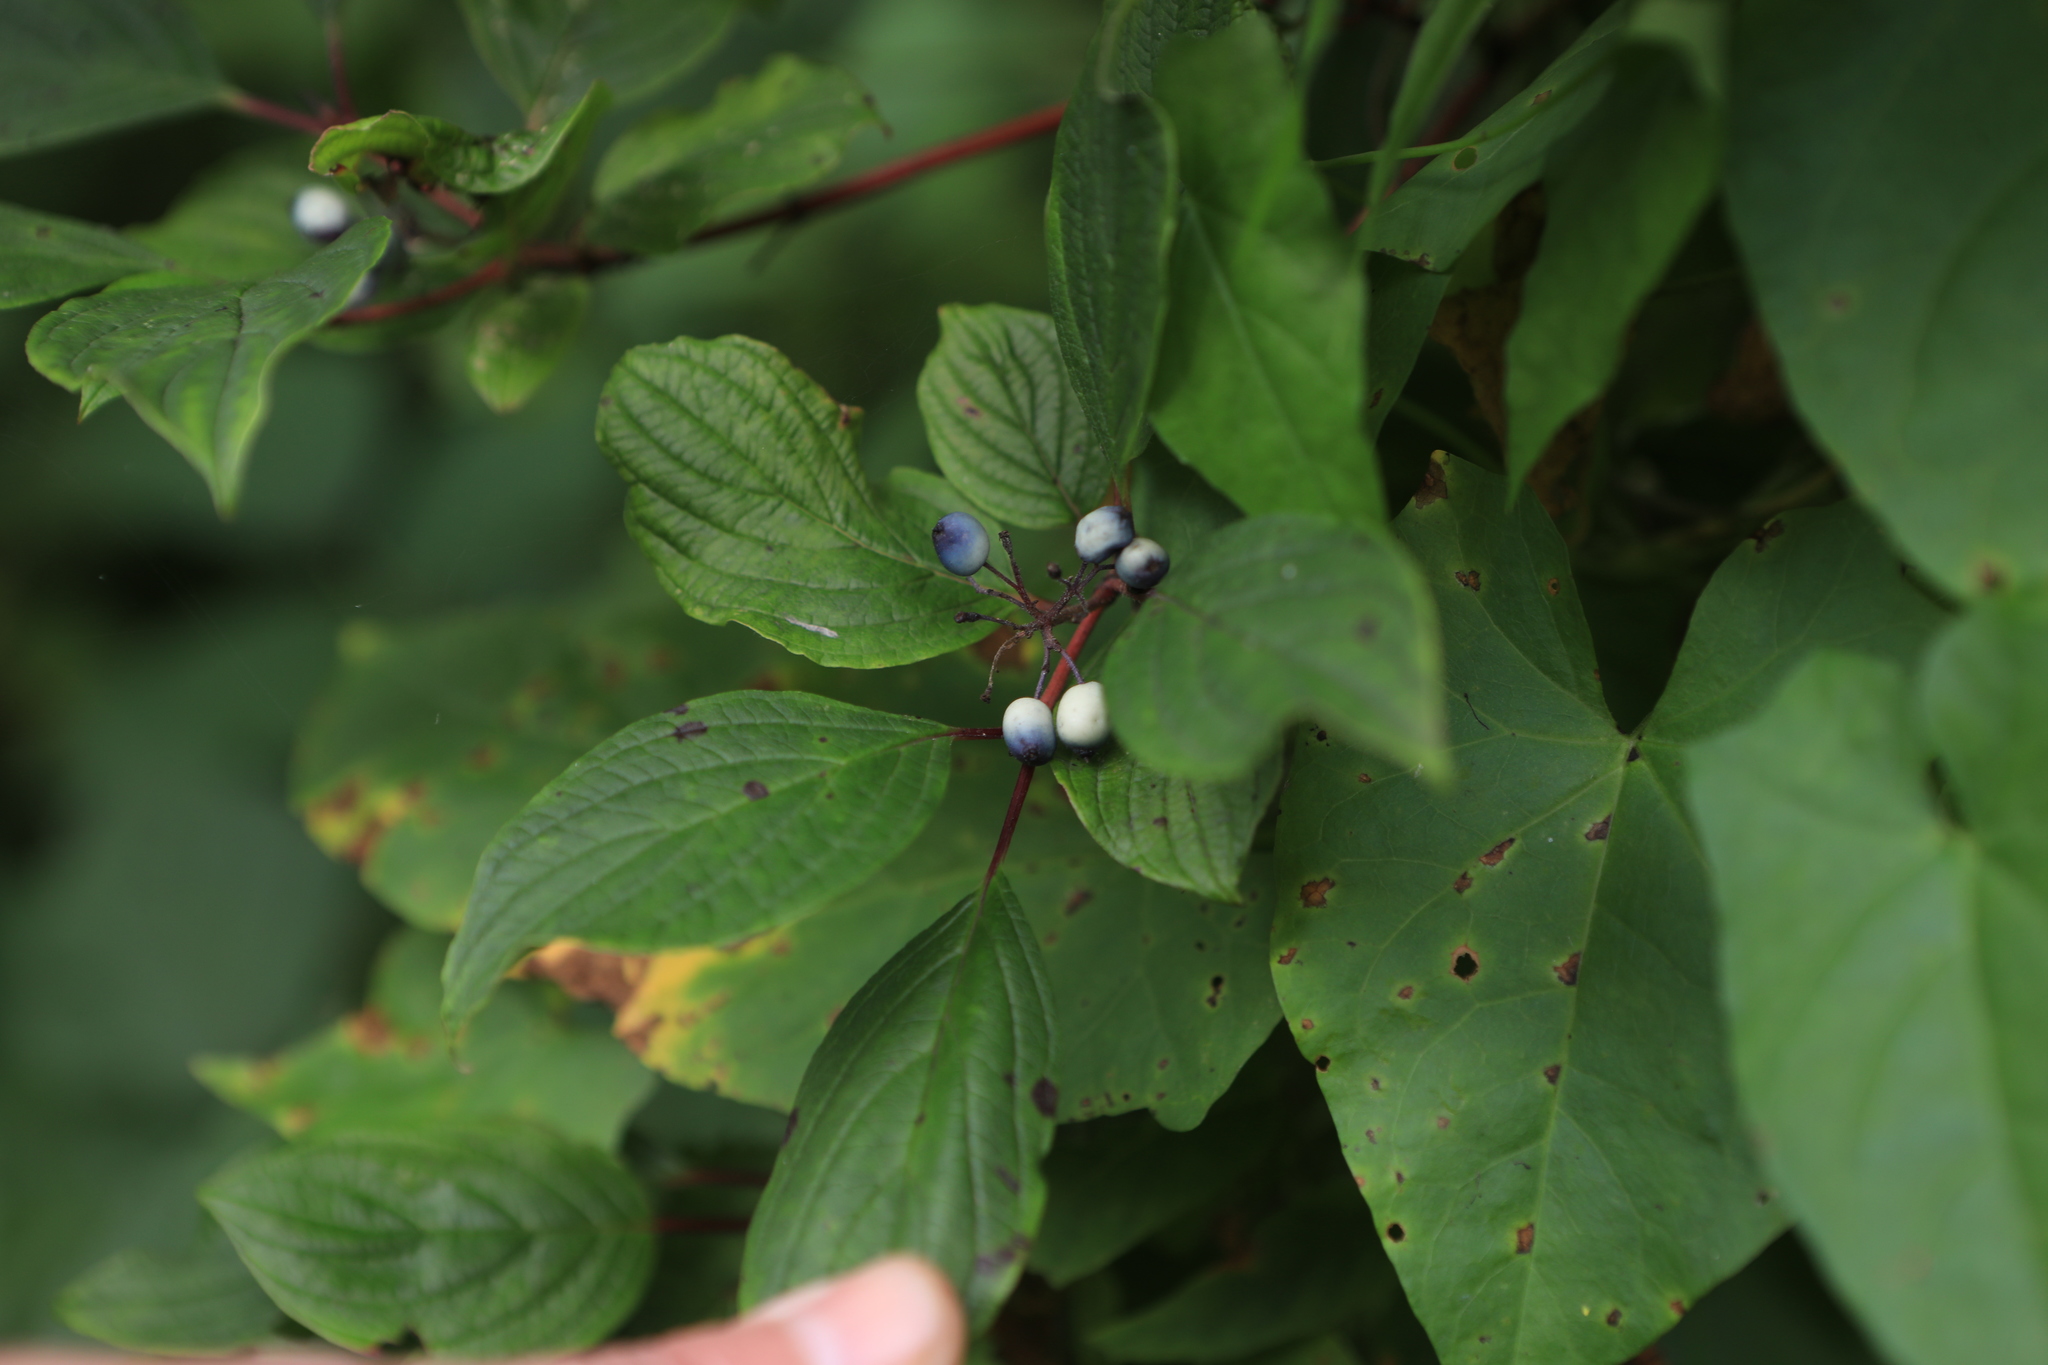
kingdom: Plantae
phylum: Tracheophyta
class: Magnoliopsida
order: Cornales
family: Cornaceae
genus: Cornus
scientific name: Cornus alba
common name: White dogwood
